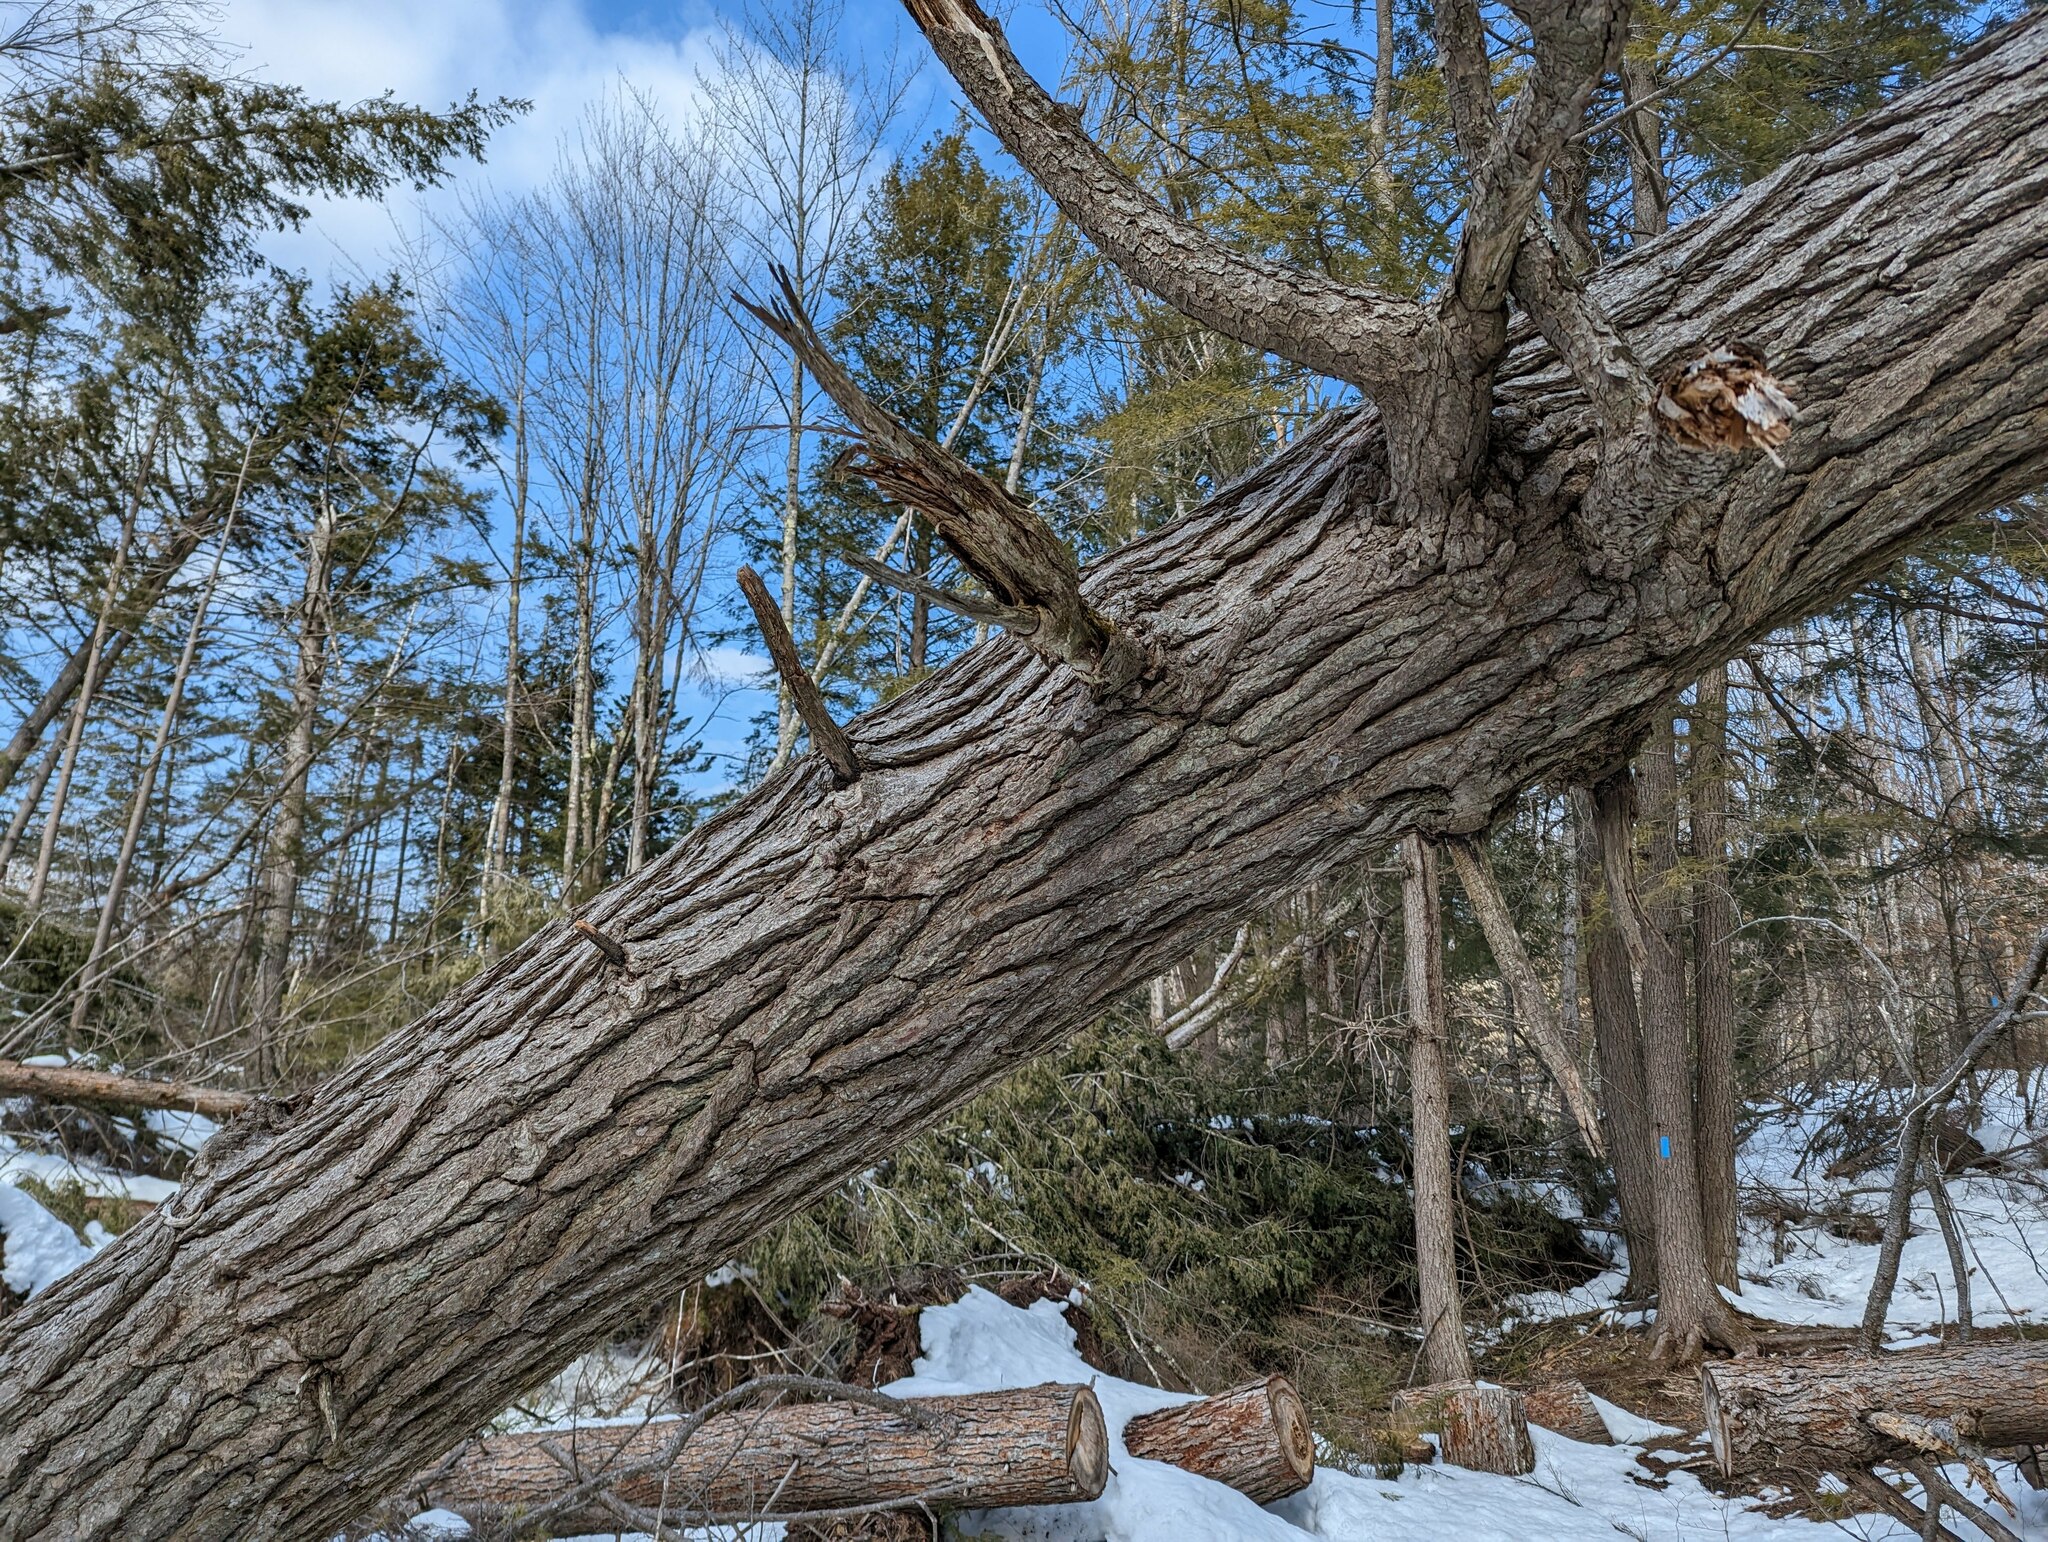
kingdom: Plantae
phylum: Tracheophyta
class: Pinopsida
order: Pinales
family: Pinaceae
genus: Tsuga
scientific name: Tsuga canadensis
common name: Eastern hemlock
